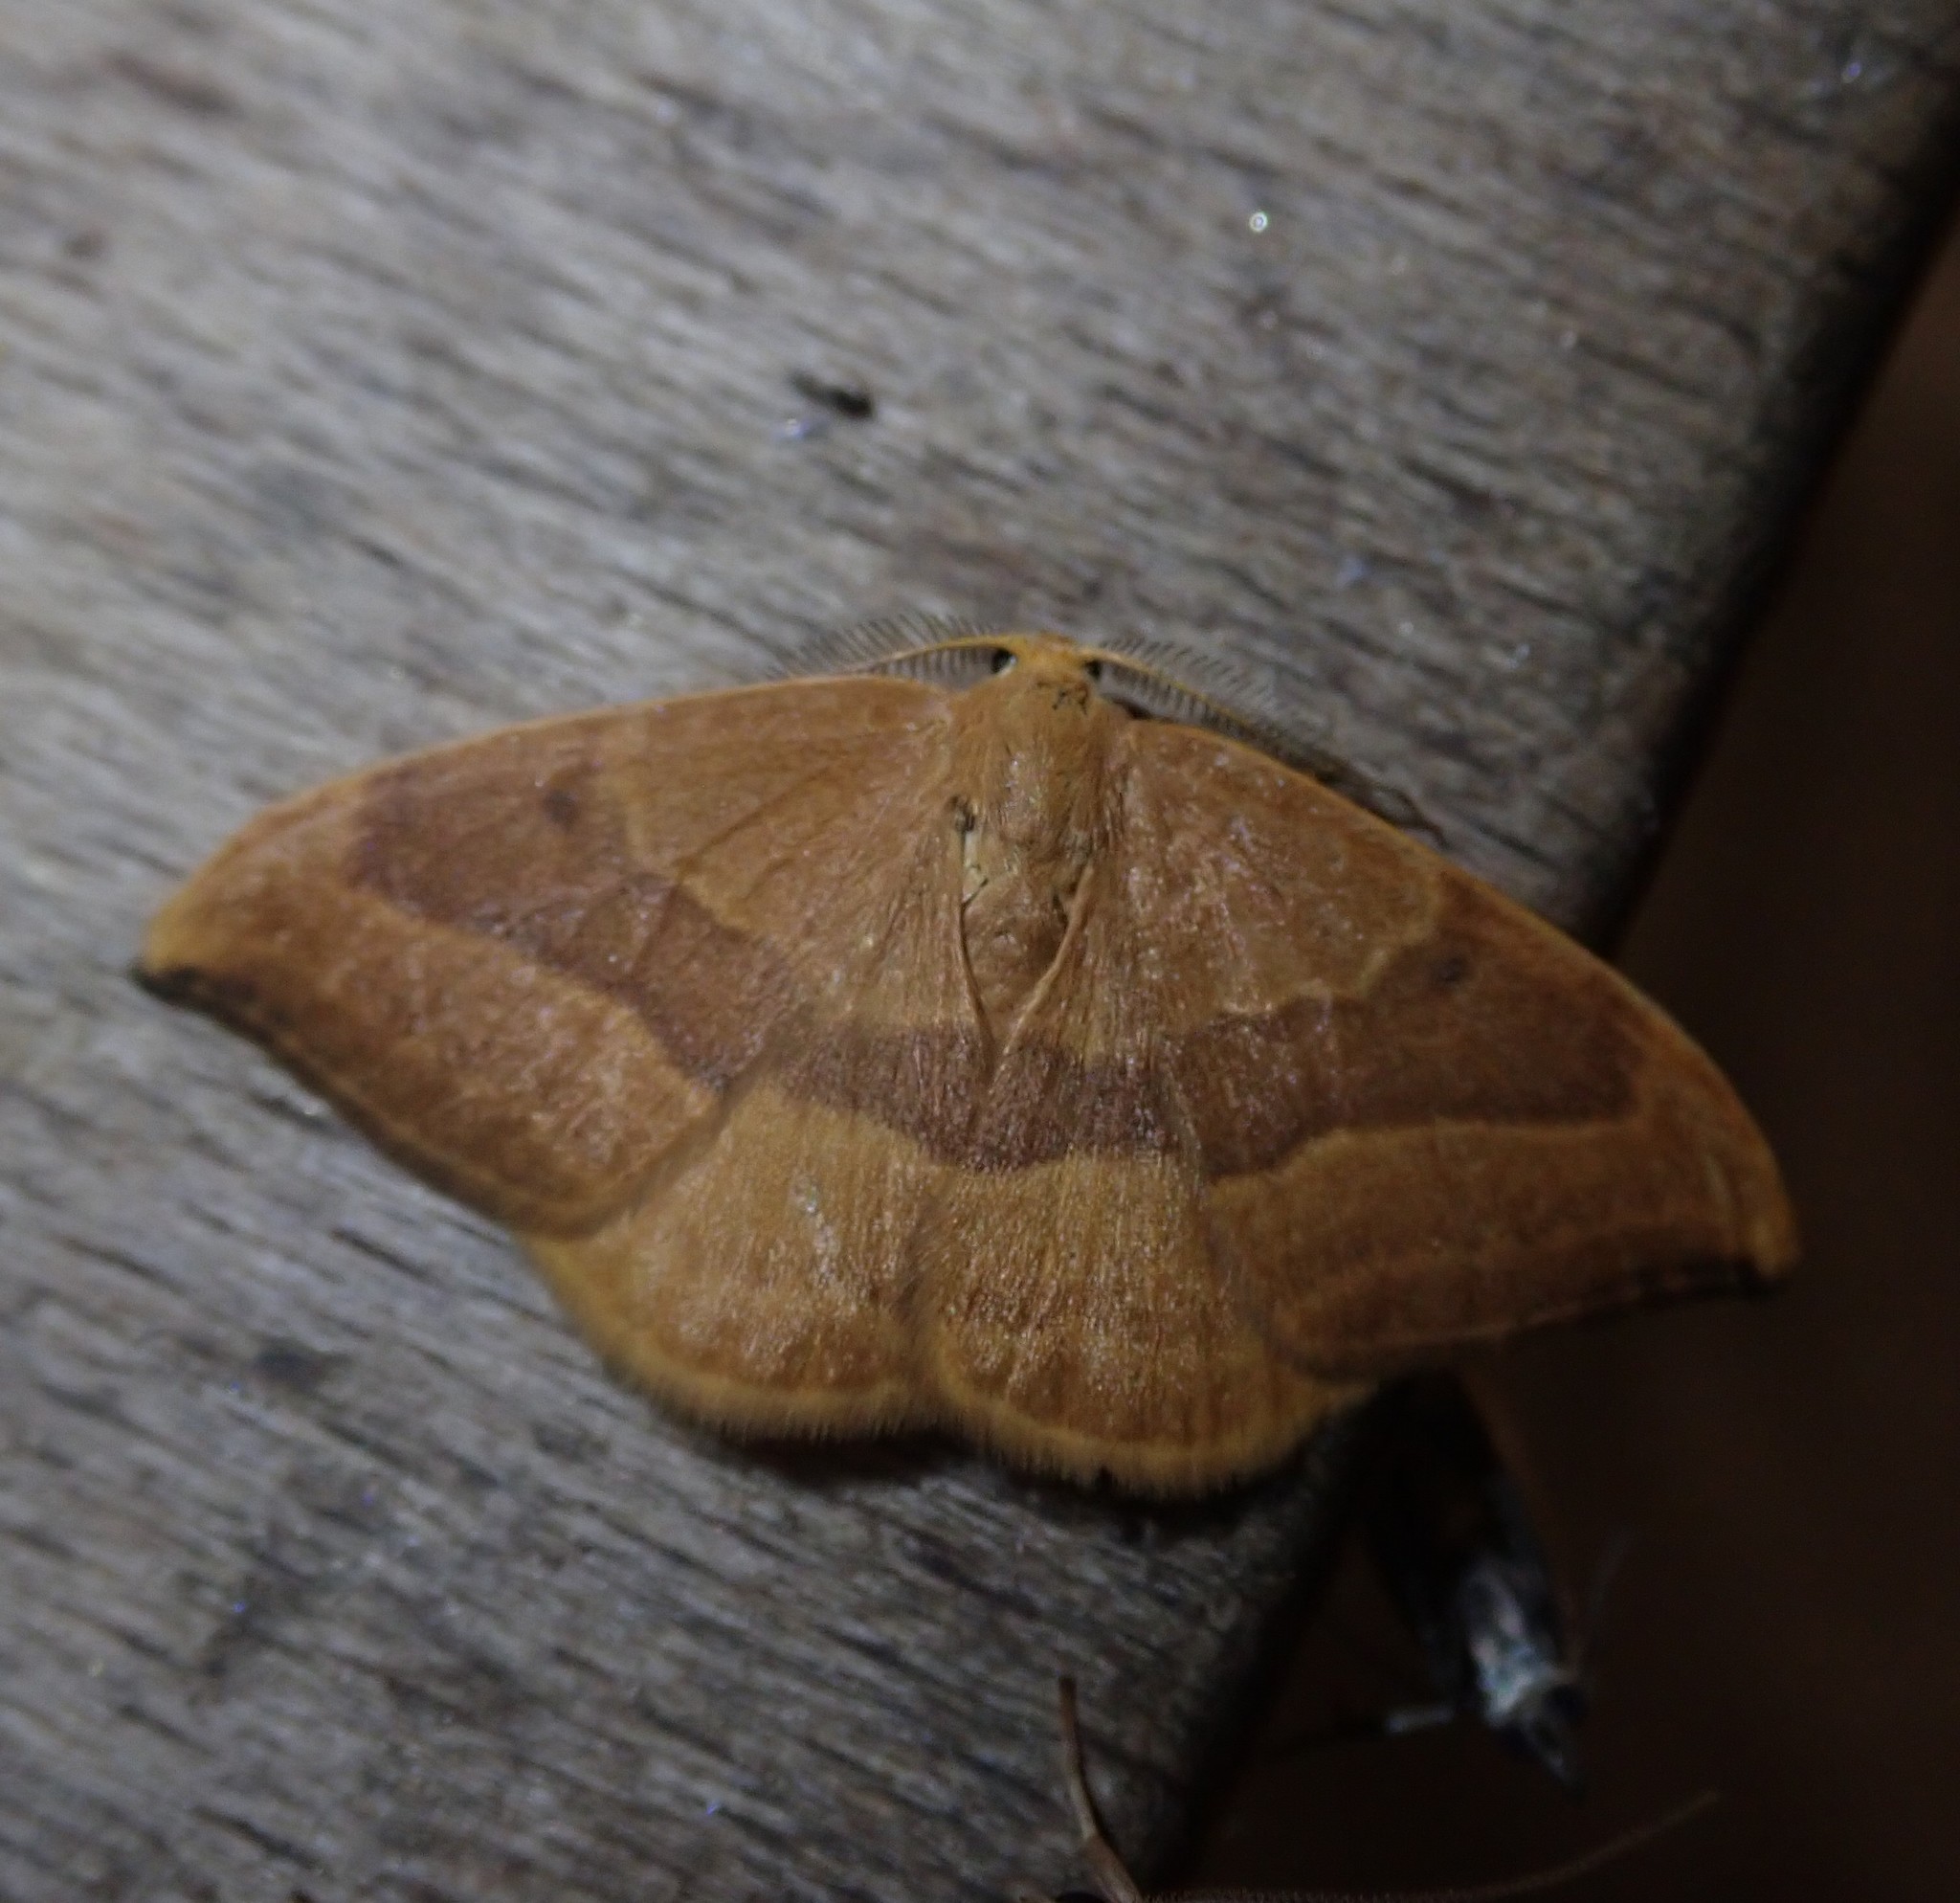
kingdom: Animalia
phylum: Arthropoda
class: Insecta
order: Lepidoptera
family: Drepanidae
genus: Watsonalla
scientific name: Watsonalla cultraria
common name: Barred hook-tip
